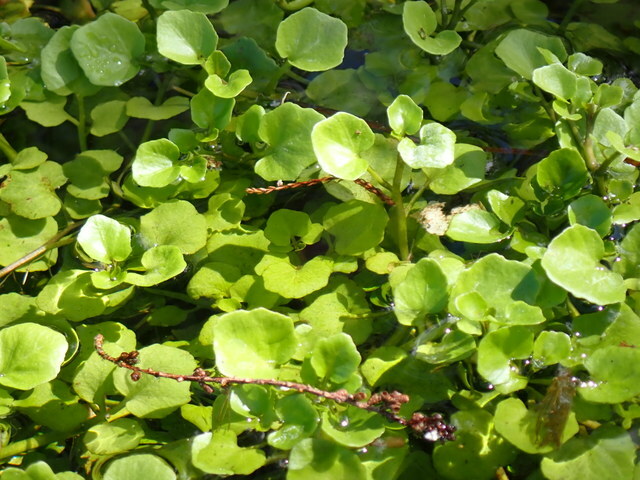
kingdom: Plantae
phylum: Tracheophyta
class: Magnoliopsida
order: Brassicales
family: Brassicaceae
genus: Nasturtium
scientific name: Nasturtium floridanum
